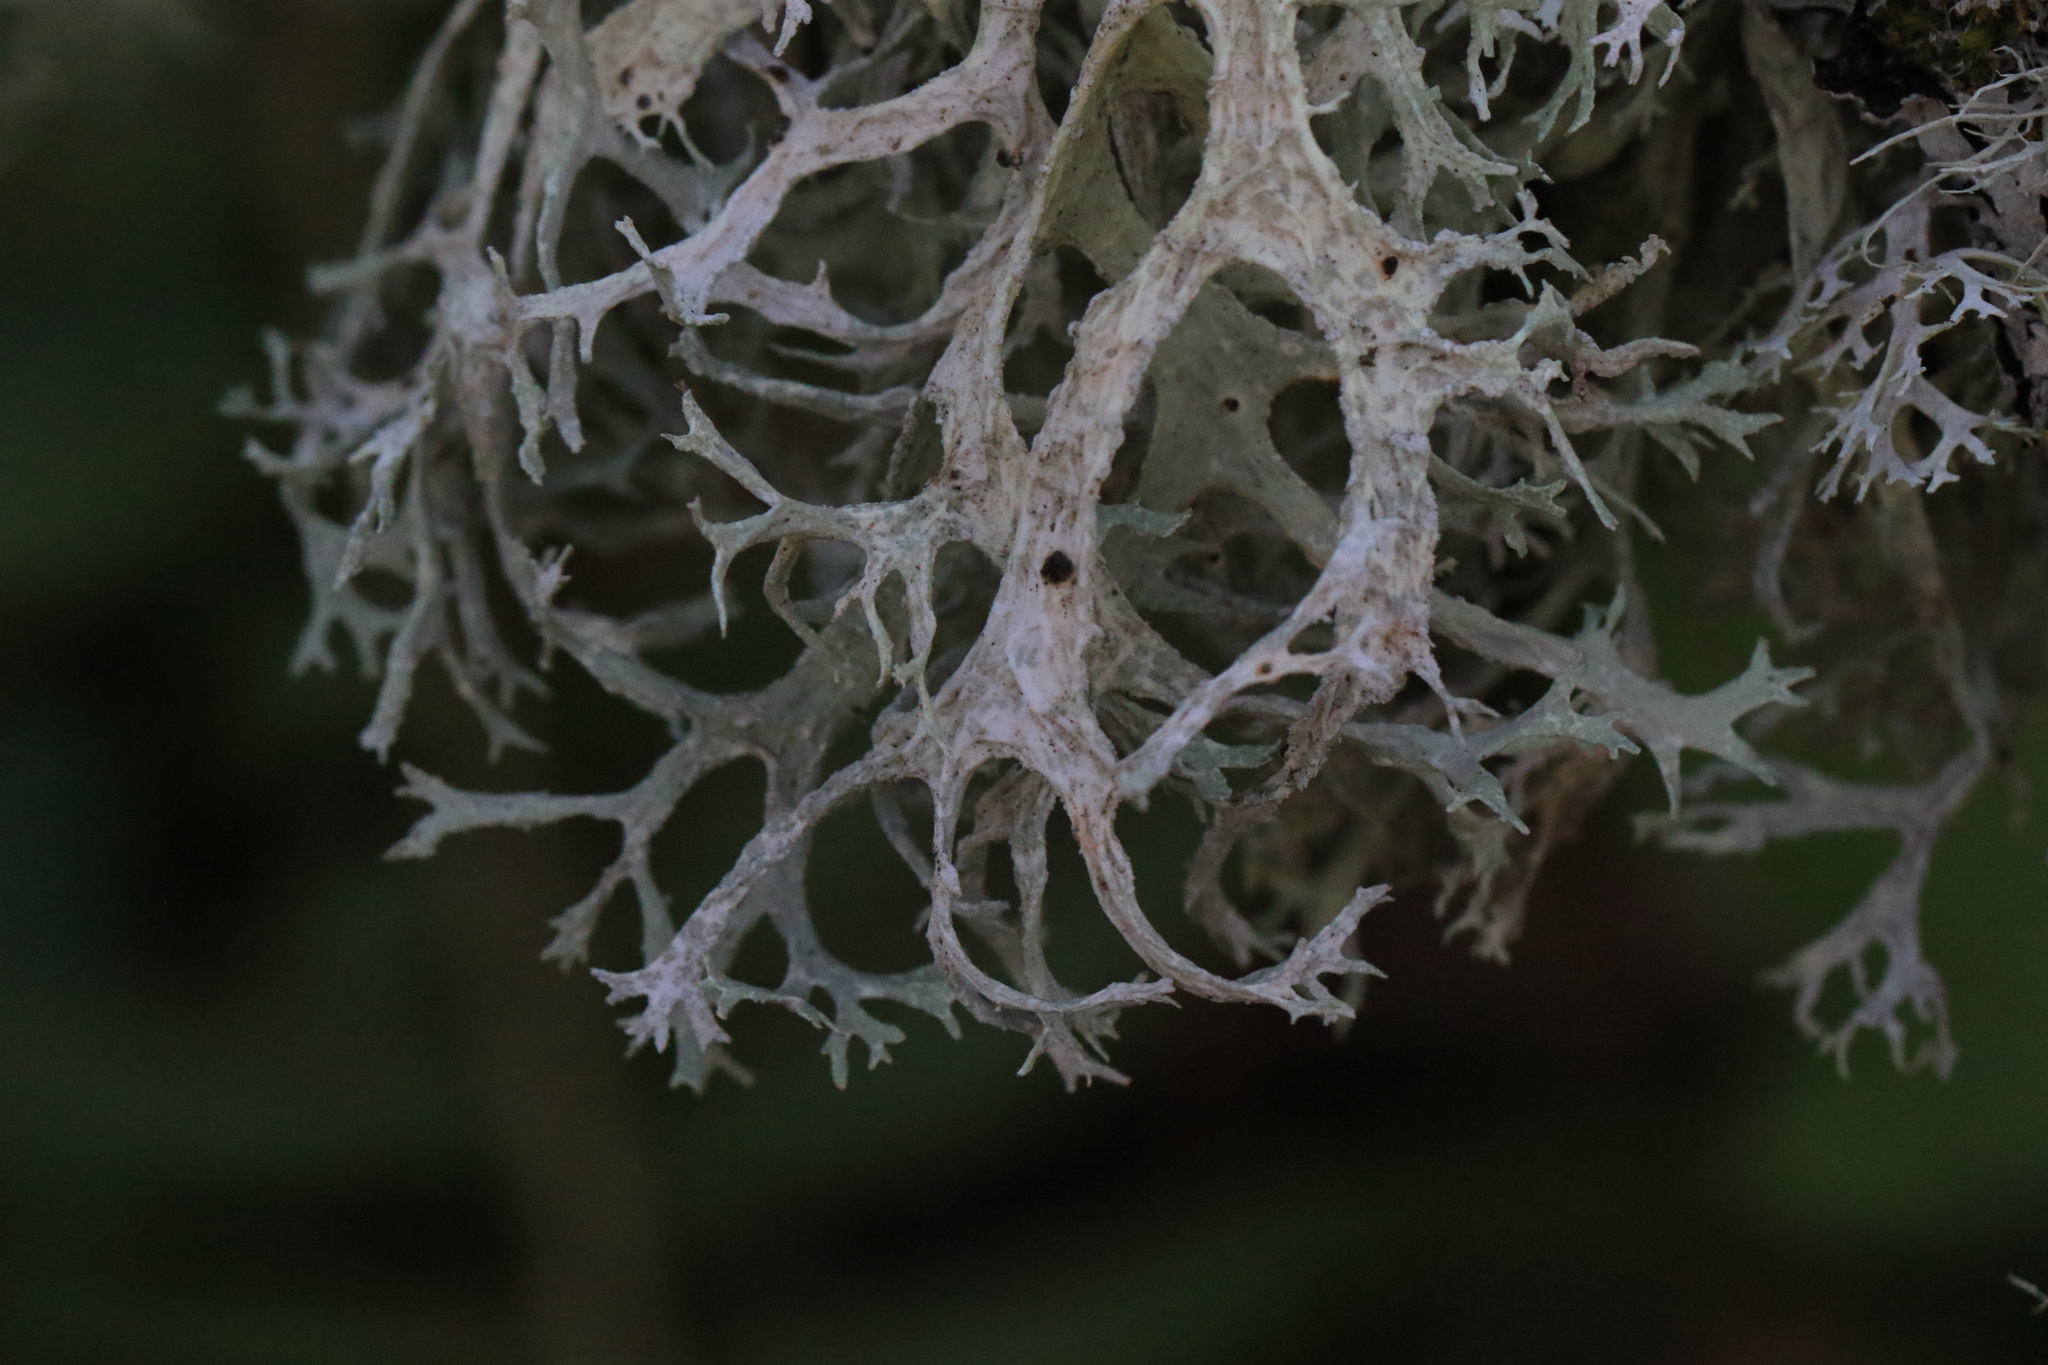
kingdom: Fungi
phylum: Ascomycota
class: Lecanoromycetes
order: Lecanorales
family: Parmeliaceae
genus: Evernia
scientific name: Evernia prunastri
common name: Oak moss
